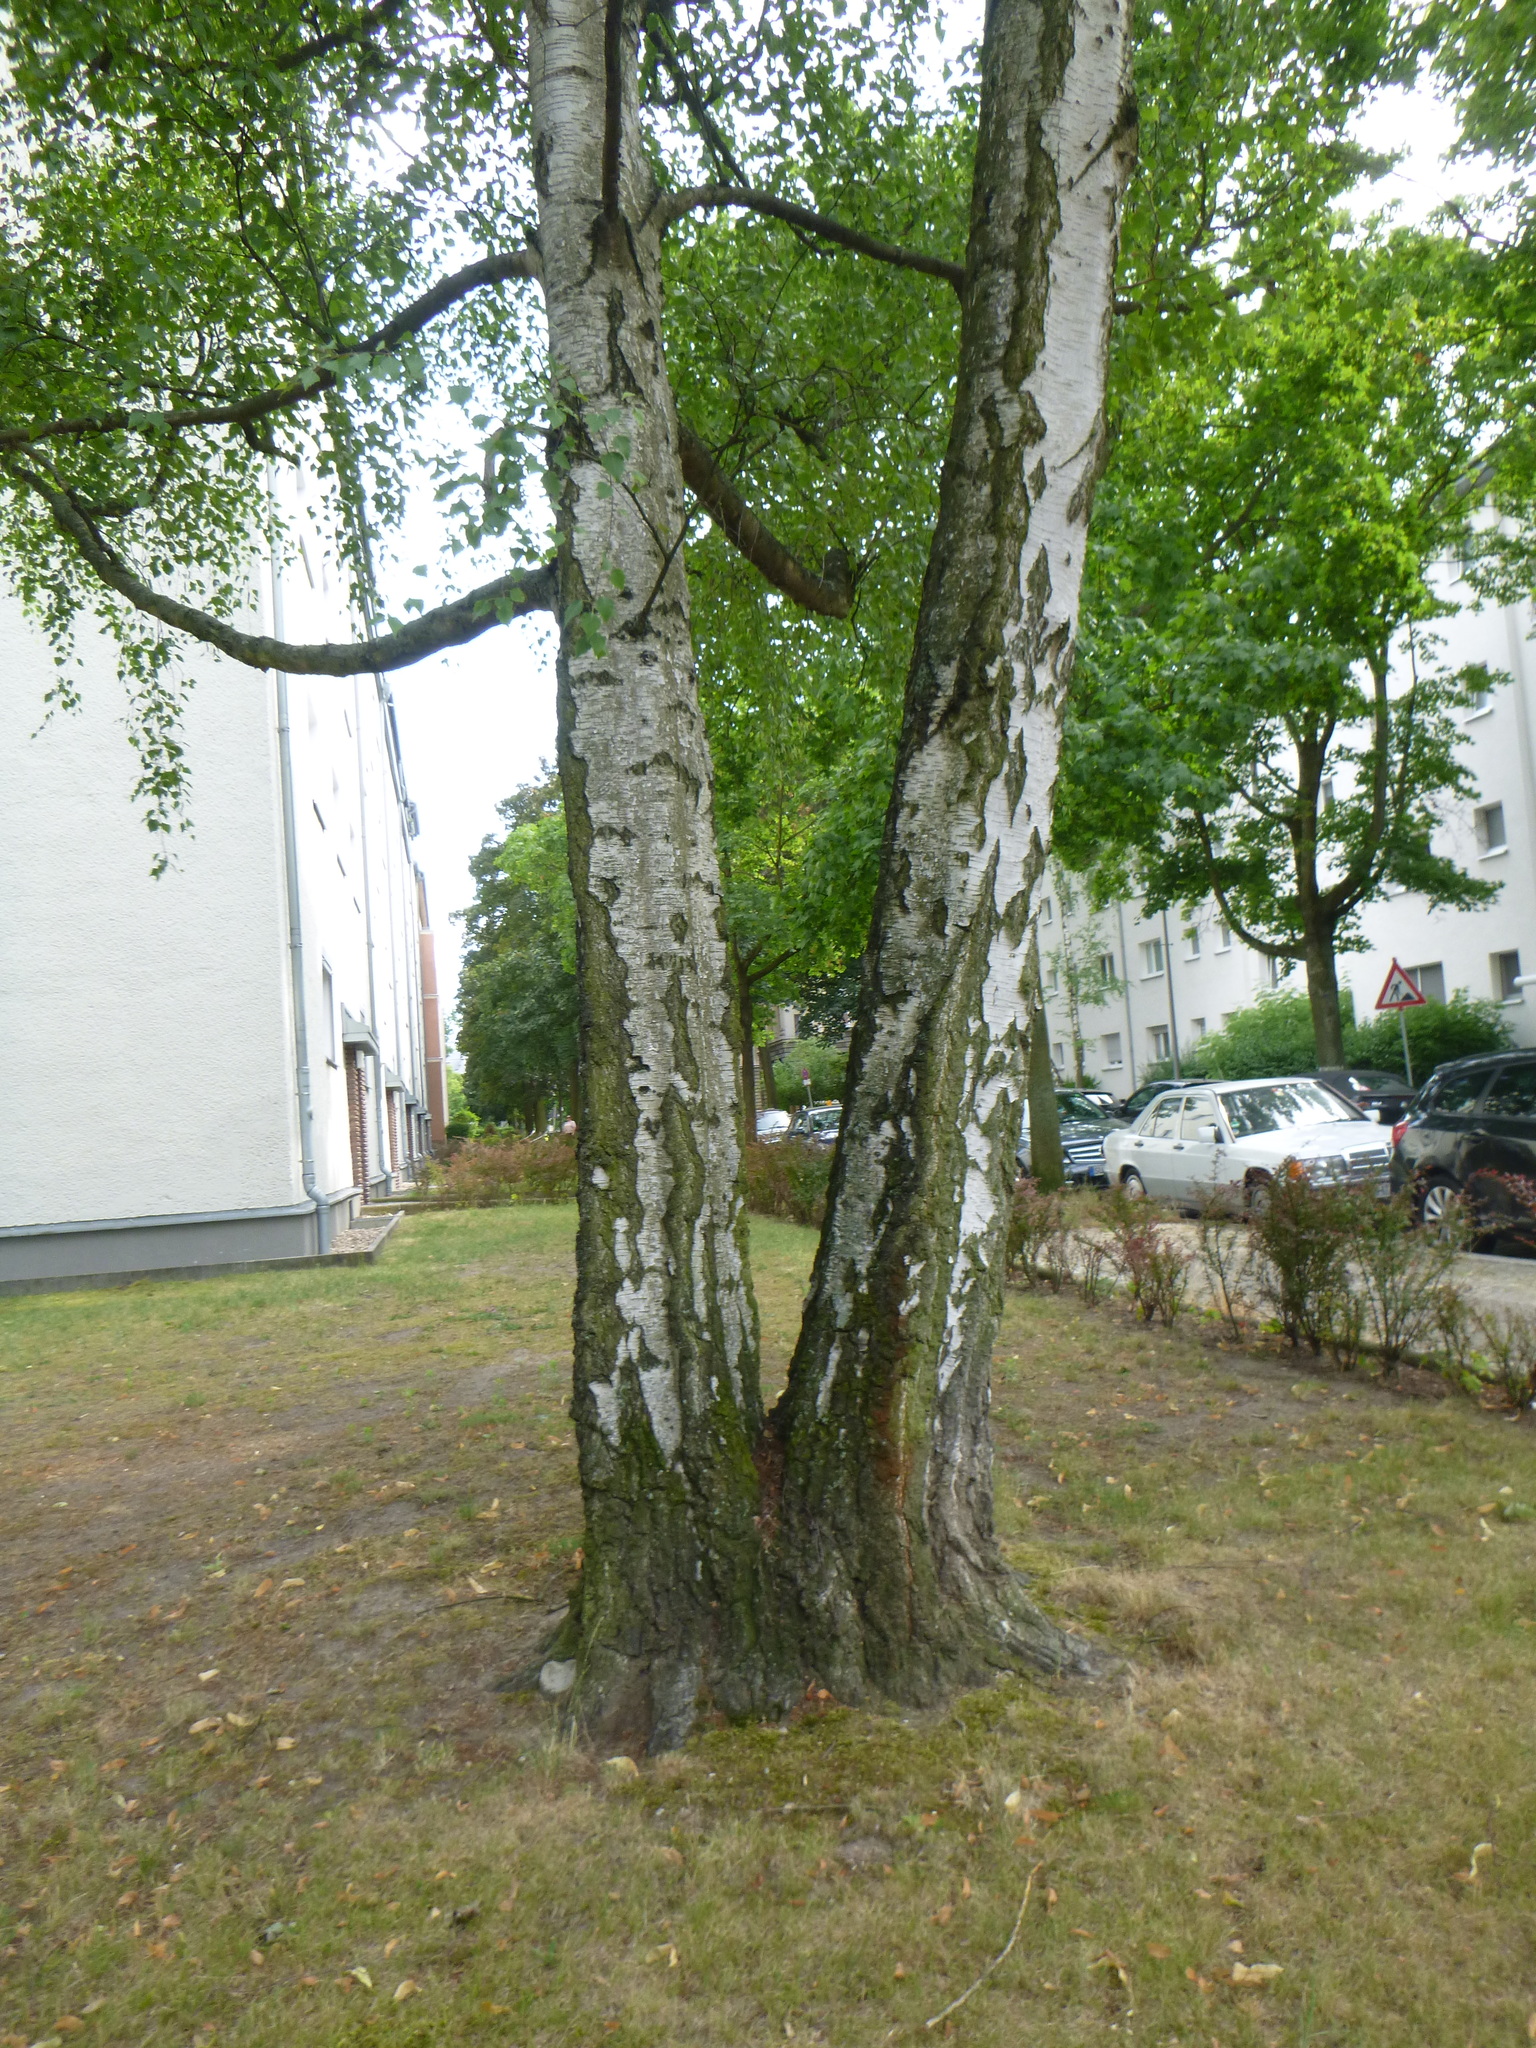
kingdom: Plantae
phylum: Tracheophyta
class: Magnoliopsida
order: Fagales
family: Betulaceae
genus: Betula
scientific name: Betula pendula
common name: Silver birch
